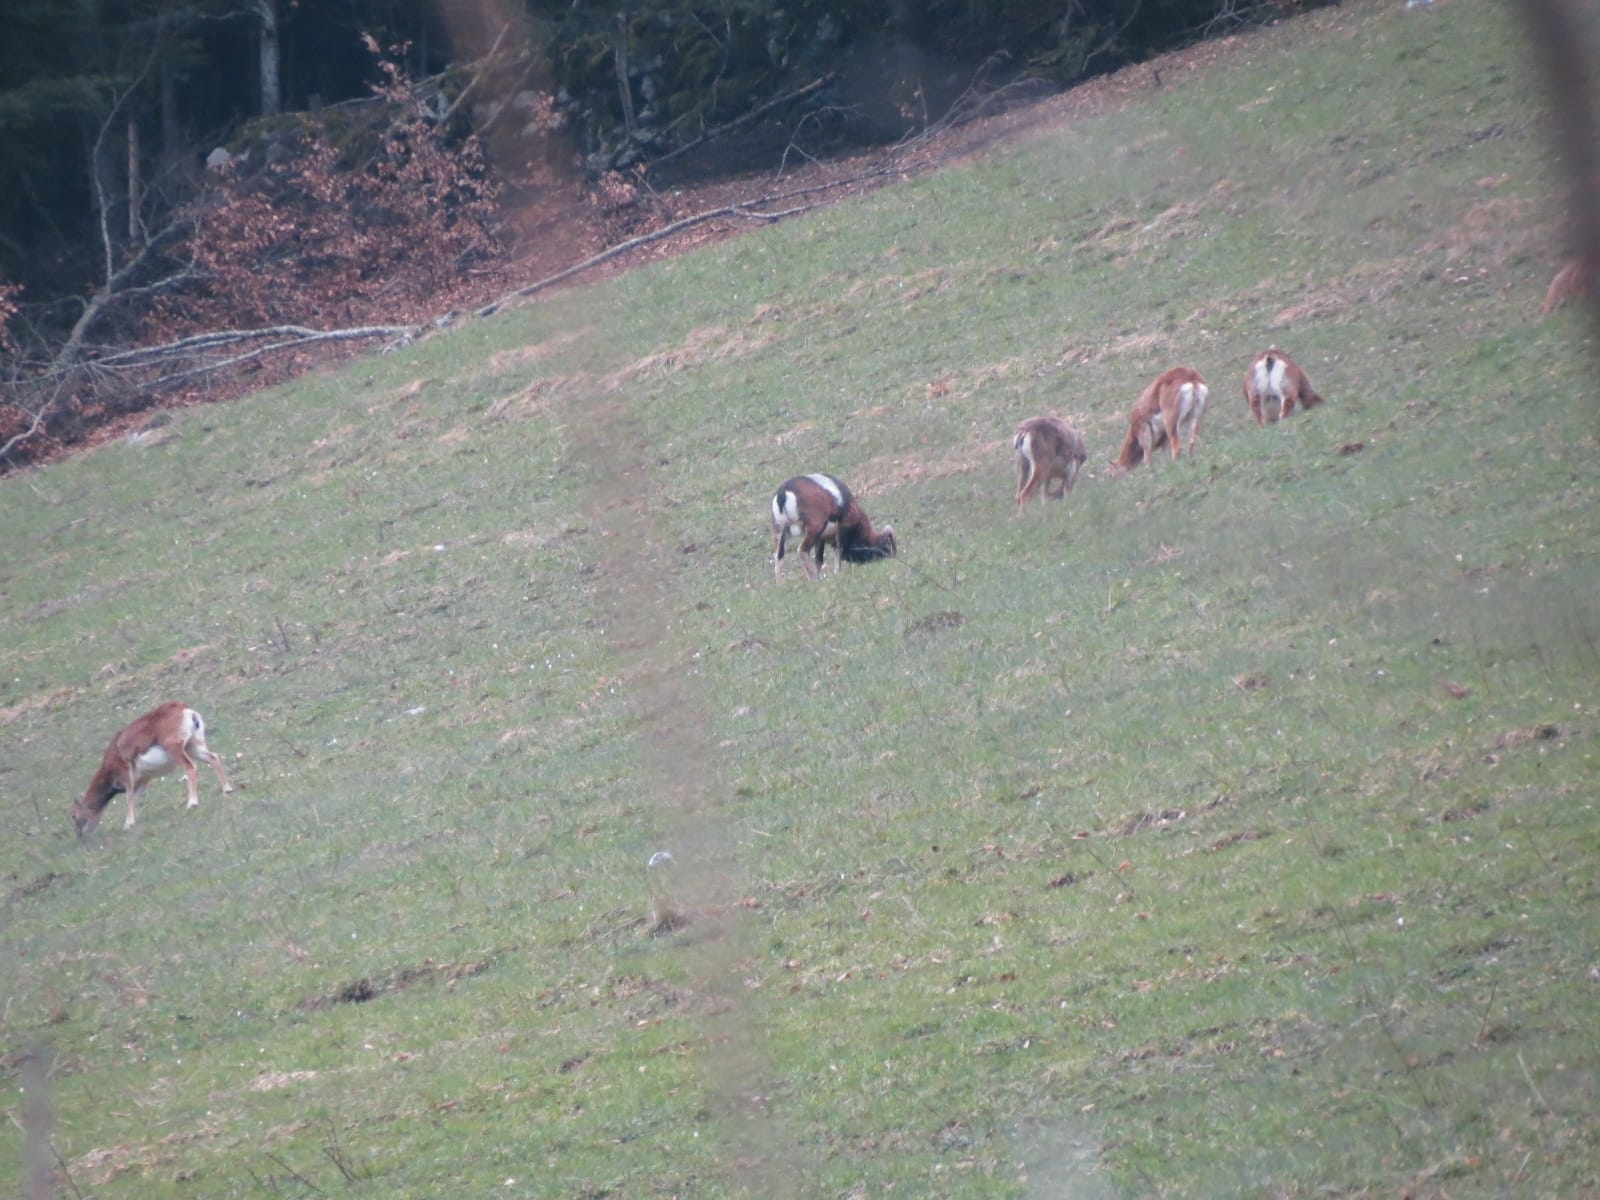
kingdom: Animalia
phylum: Chordata
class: Mammalia
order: Artiodactyla
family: Bovidae
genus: Ovis
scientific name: Ovis aries
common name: Domestic sheep
